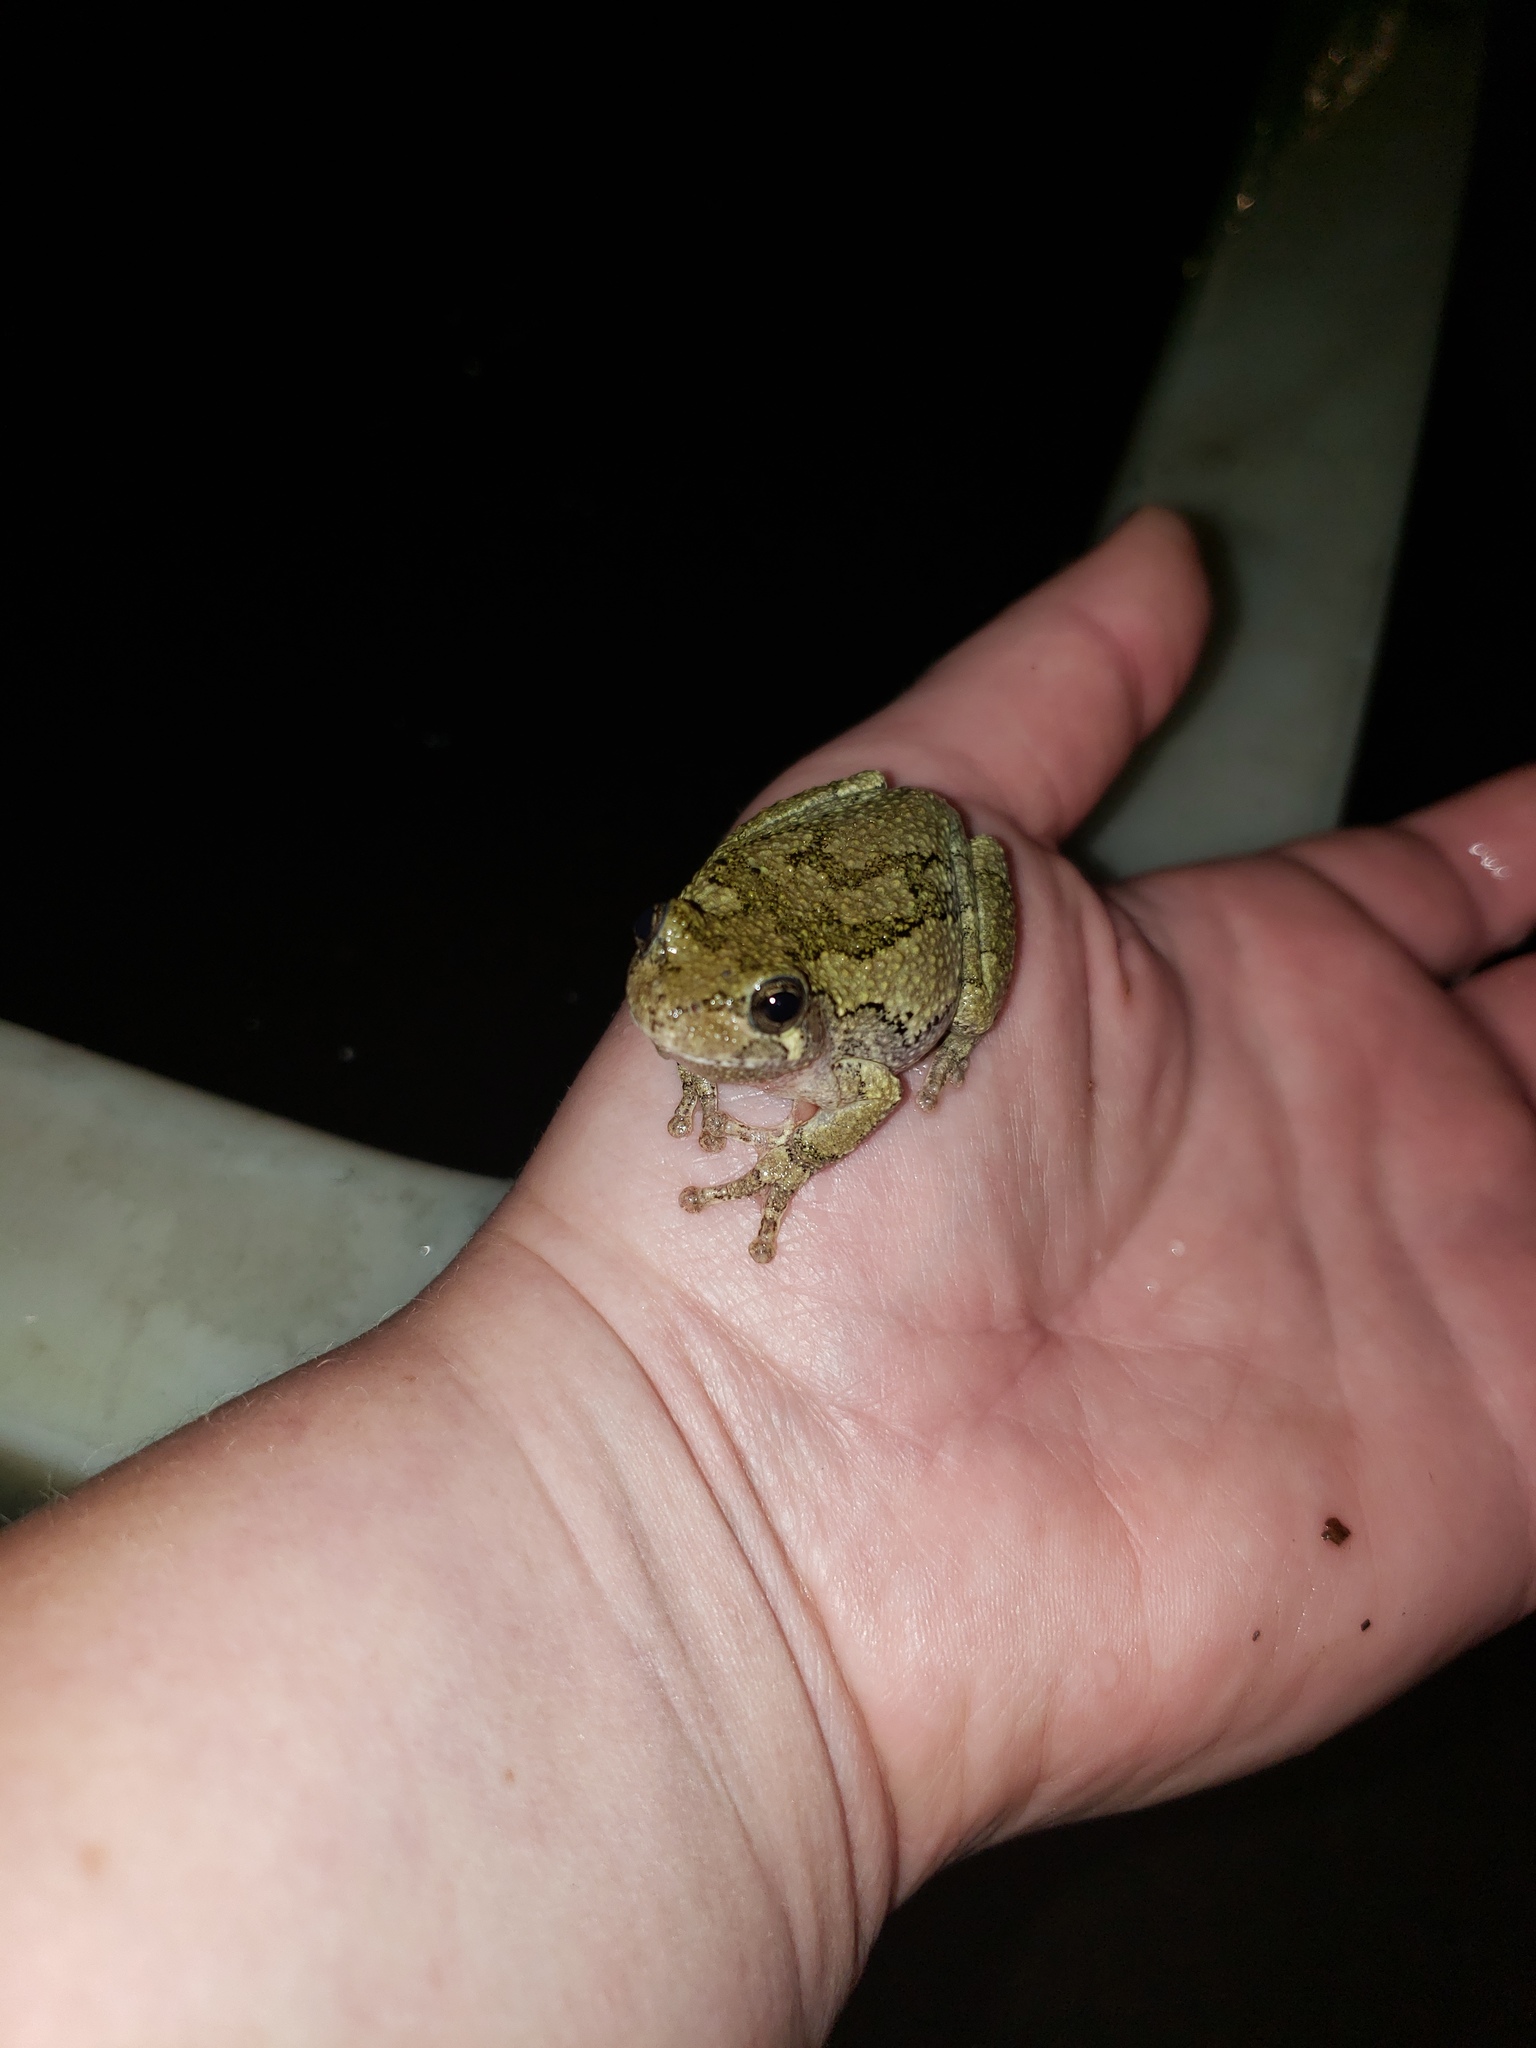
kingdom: Animalia
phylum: Chordata
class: Amphibia
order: Anura
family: Hylidae
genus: Hyla
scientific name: Hyla
